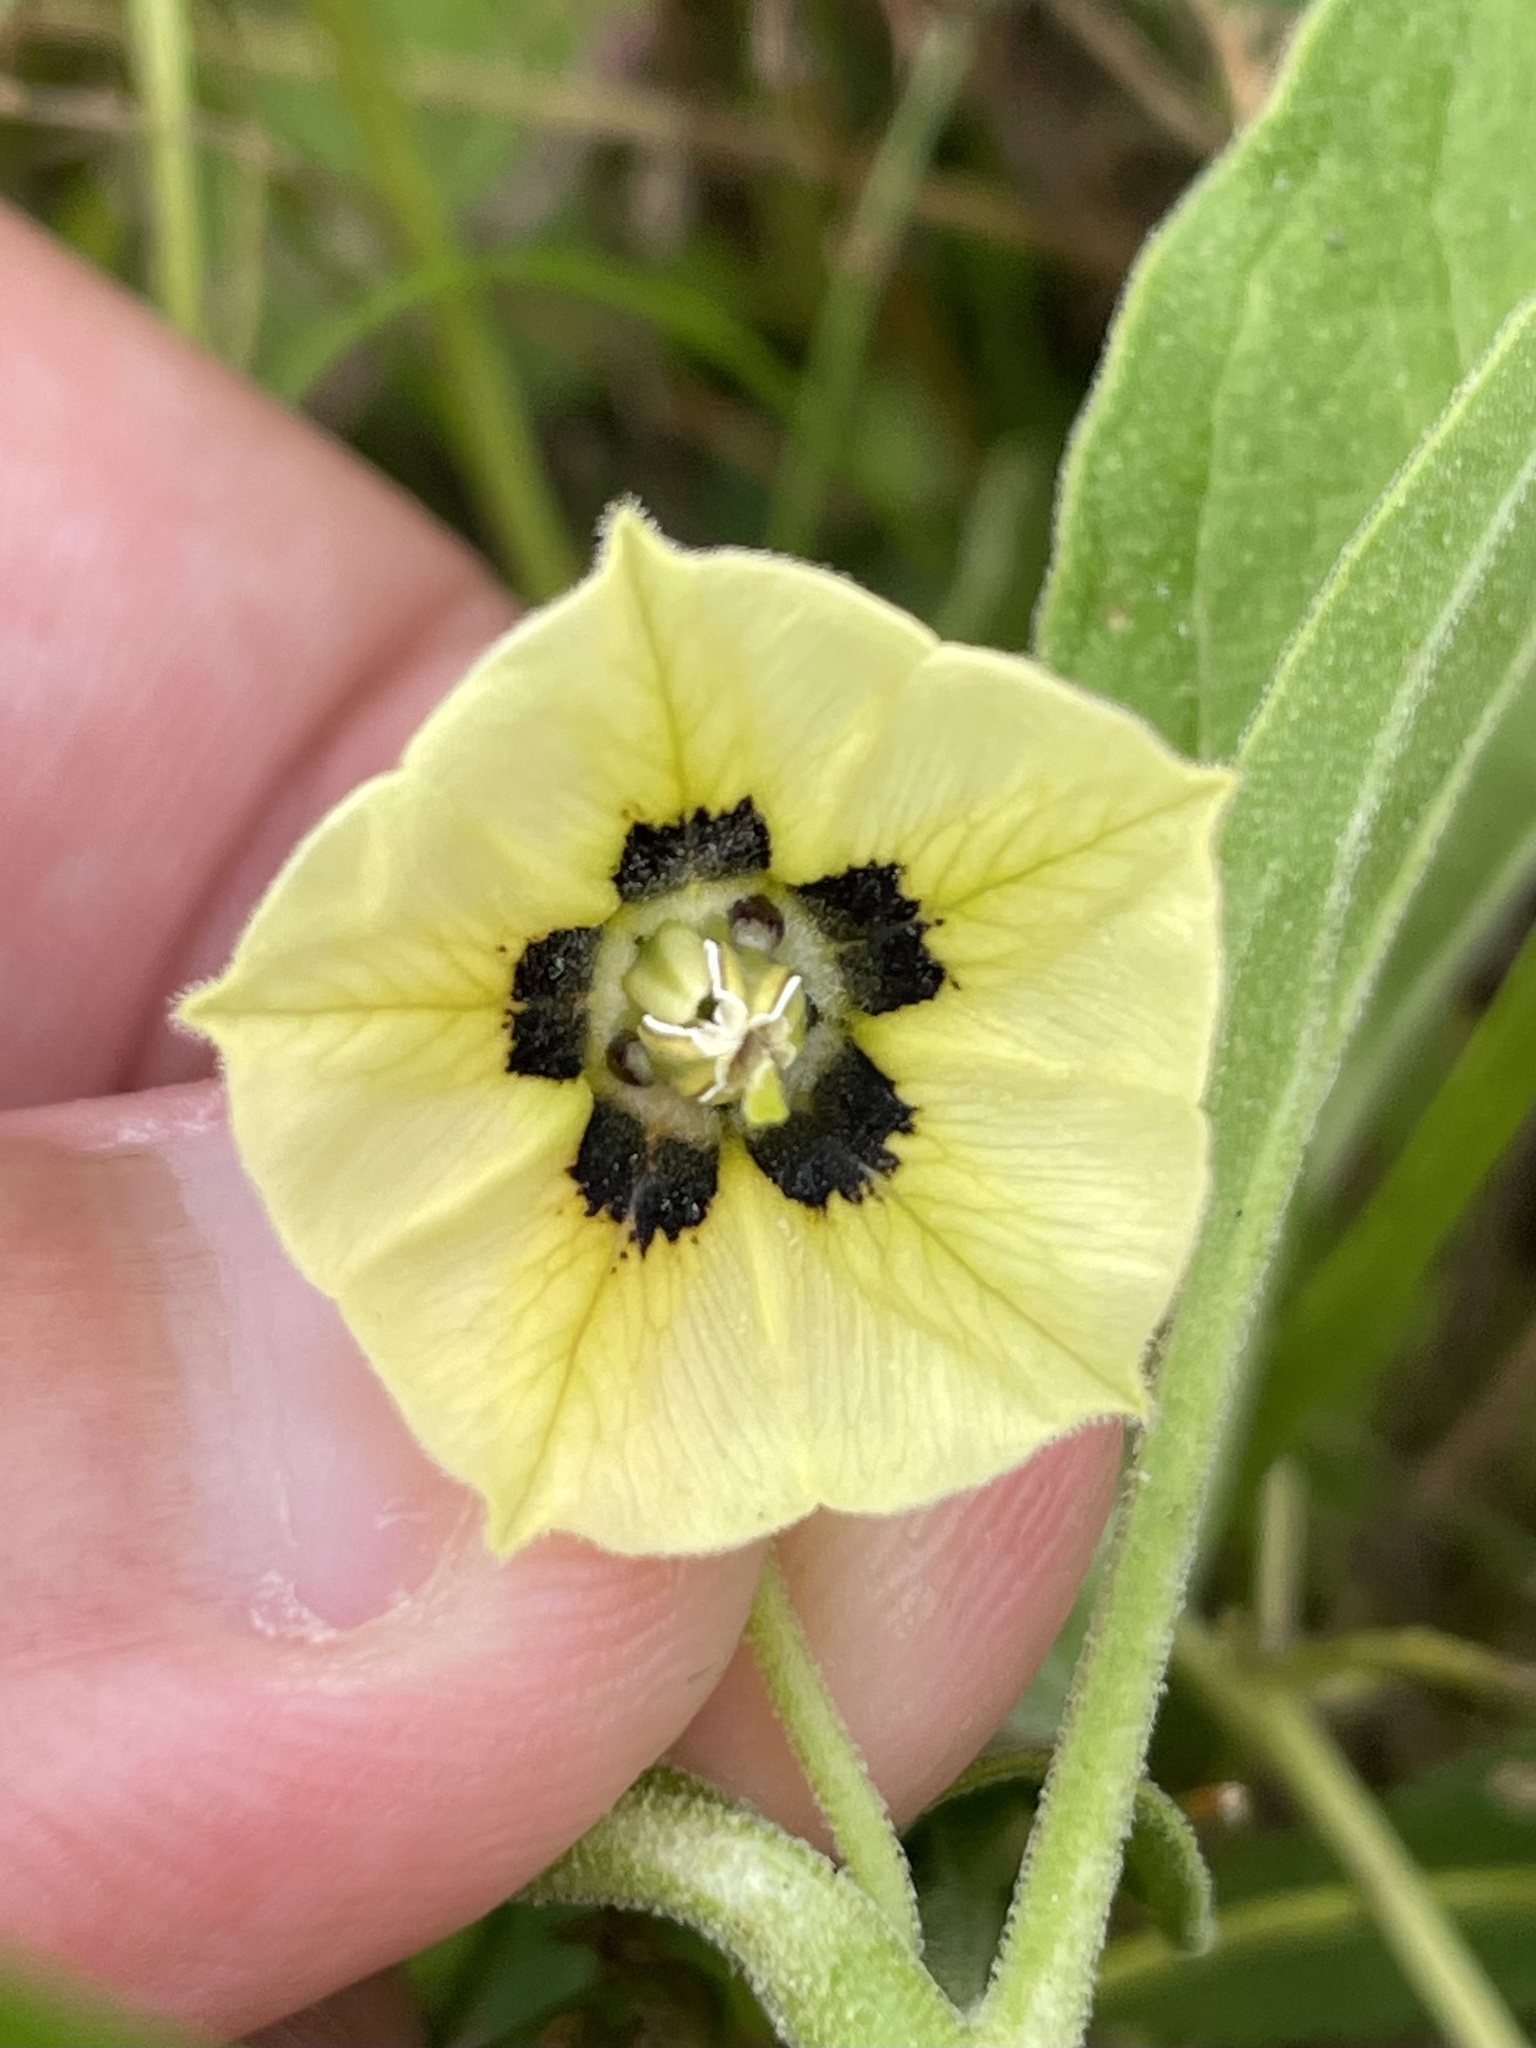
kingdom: Plantae
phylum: Tracheophyta
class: Magnoliopsida
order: Solanales
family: Solanaceae
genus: Physalis
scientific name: Physalis cinerascens
